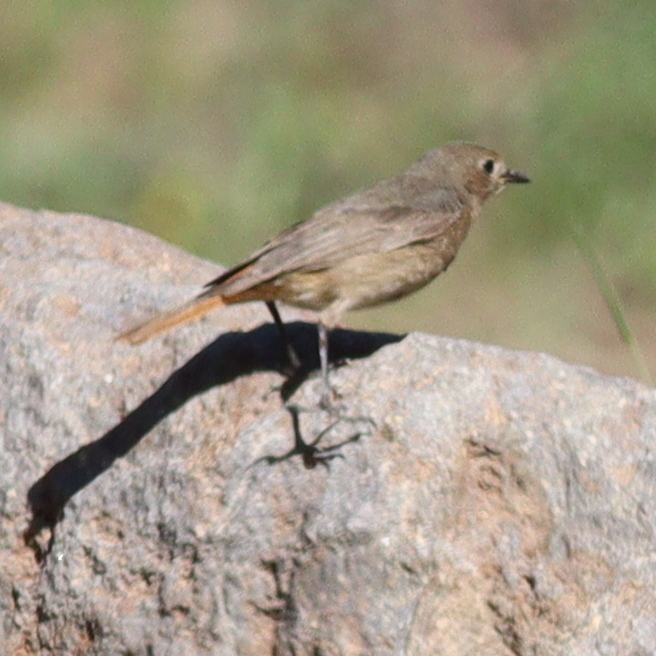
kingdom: Animalia
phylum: Chordata
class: Aves
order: Passeriformes
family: Muscicapidae
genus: Phoenicurus
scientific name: Phoenicurus ochruros
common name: Black redstart
